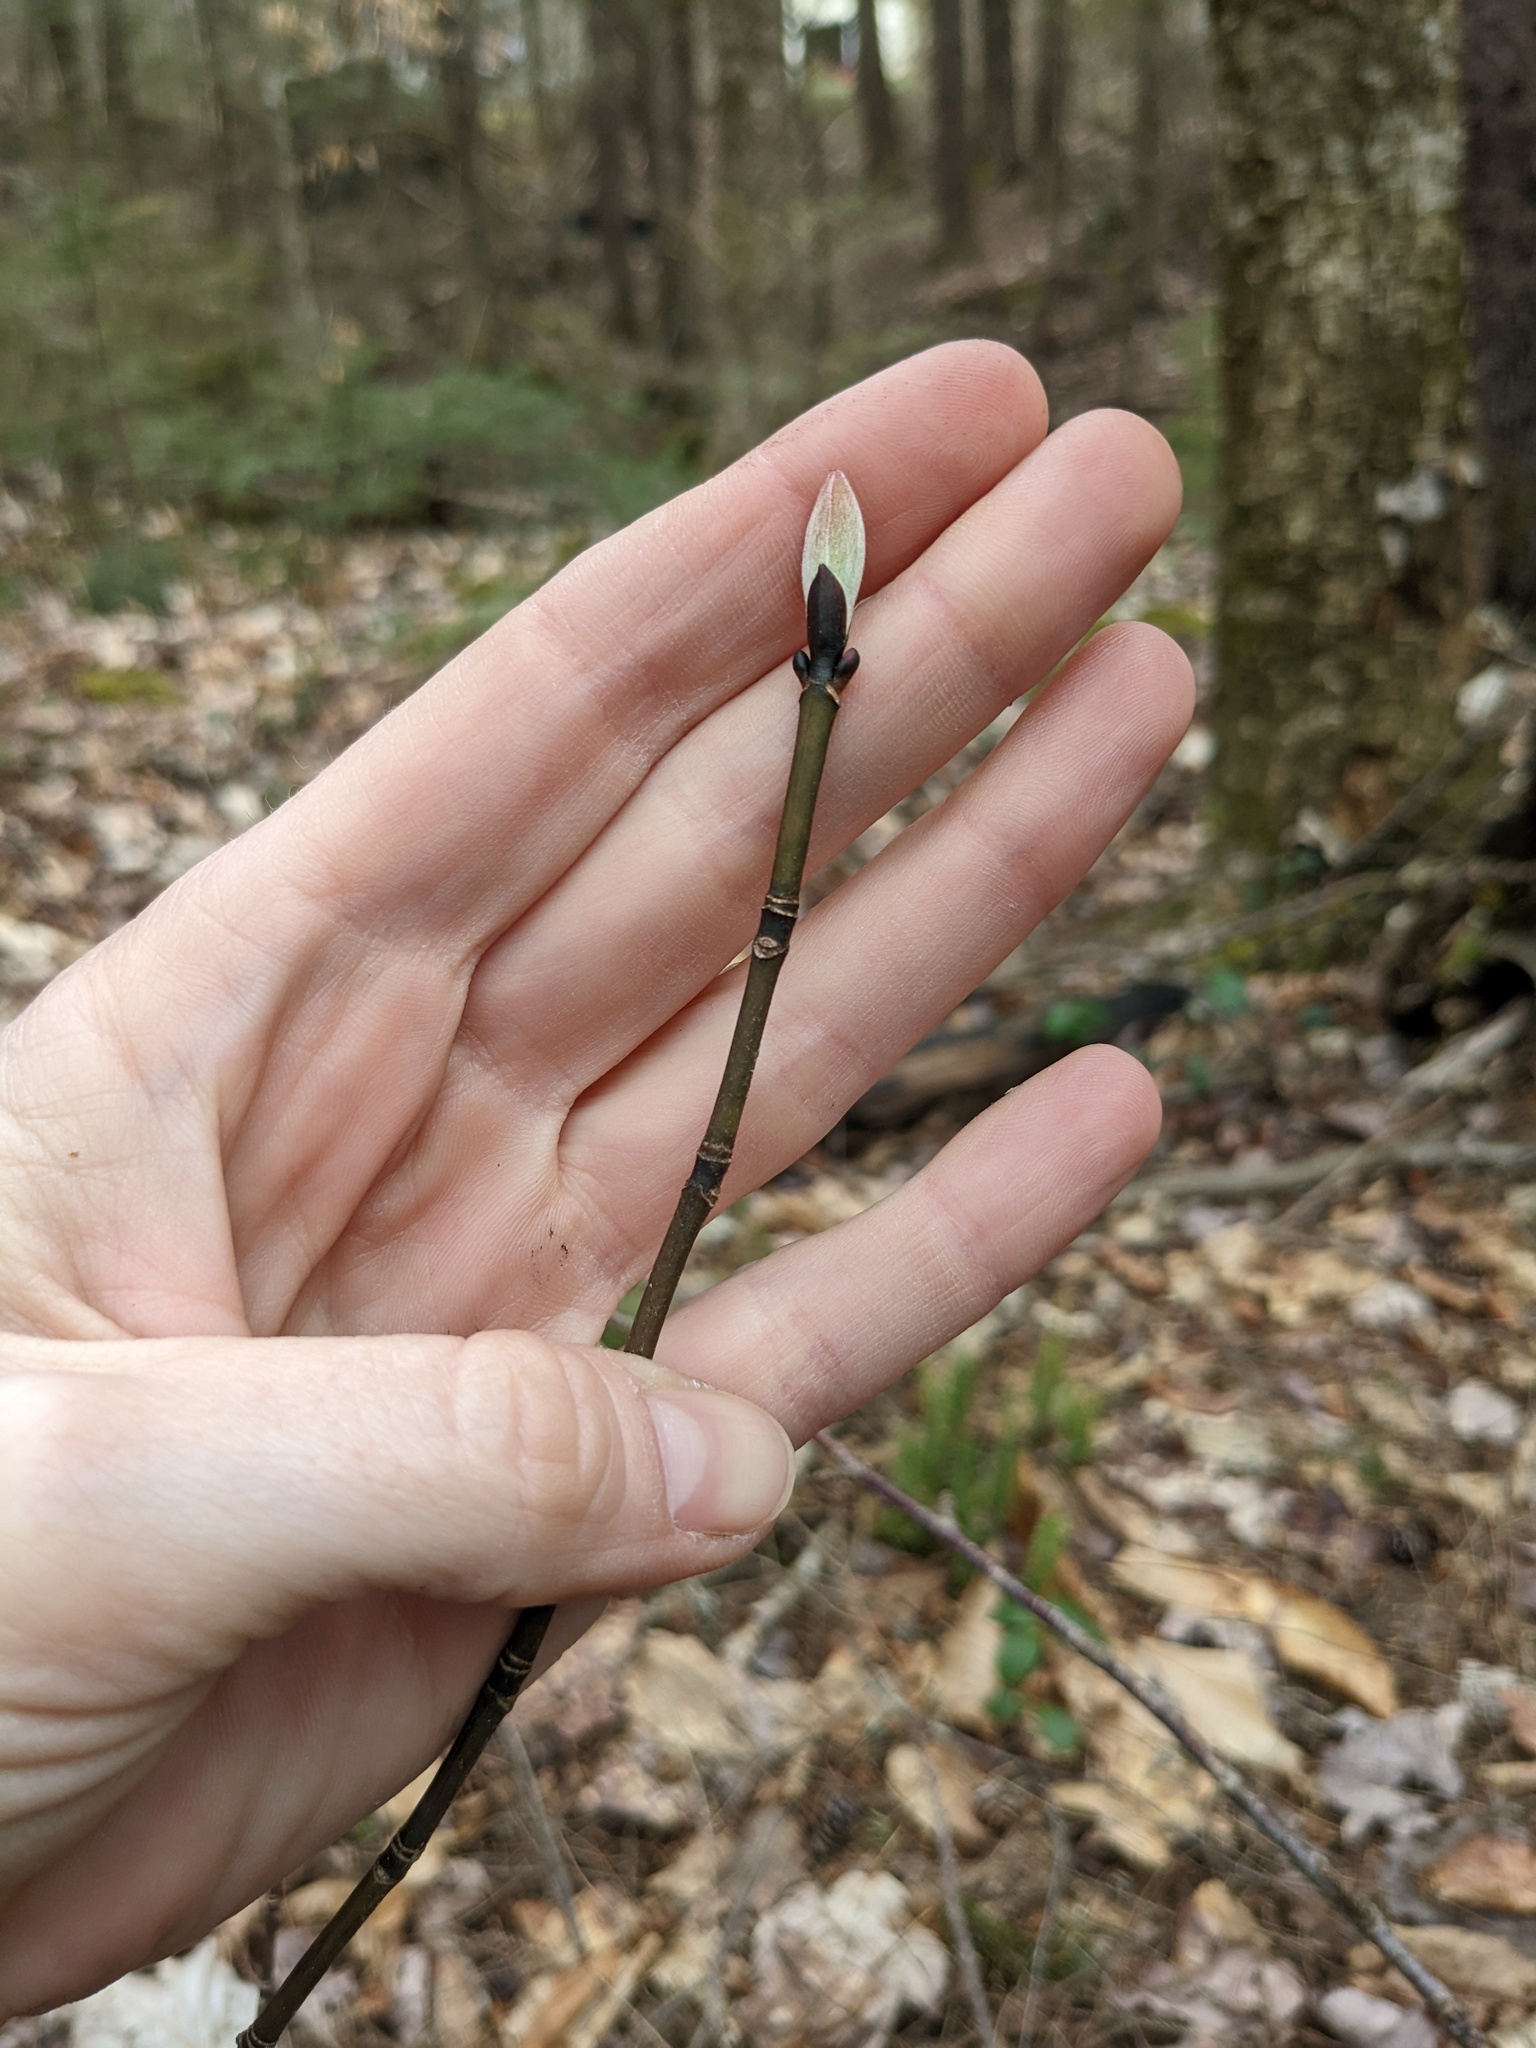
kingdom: Plantae
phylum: Tracheophyta
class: Magnoliopsida
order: Sapindales
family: Sapindaceae
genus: Acer
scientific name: Acer pensylvanicum
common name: Moosewood
